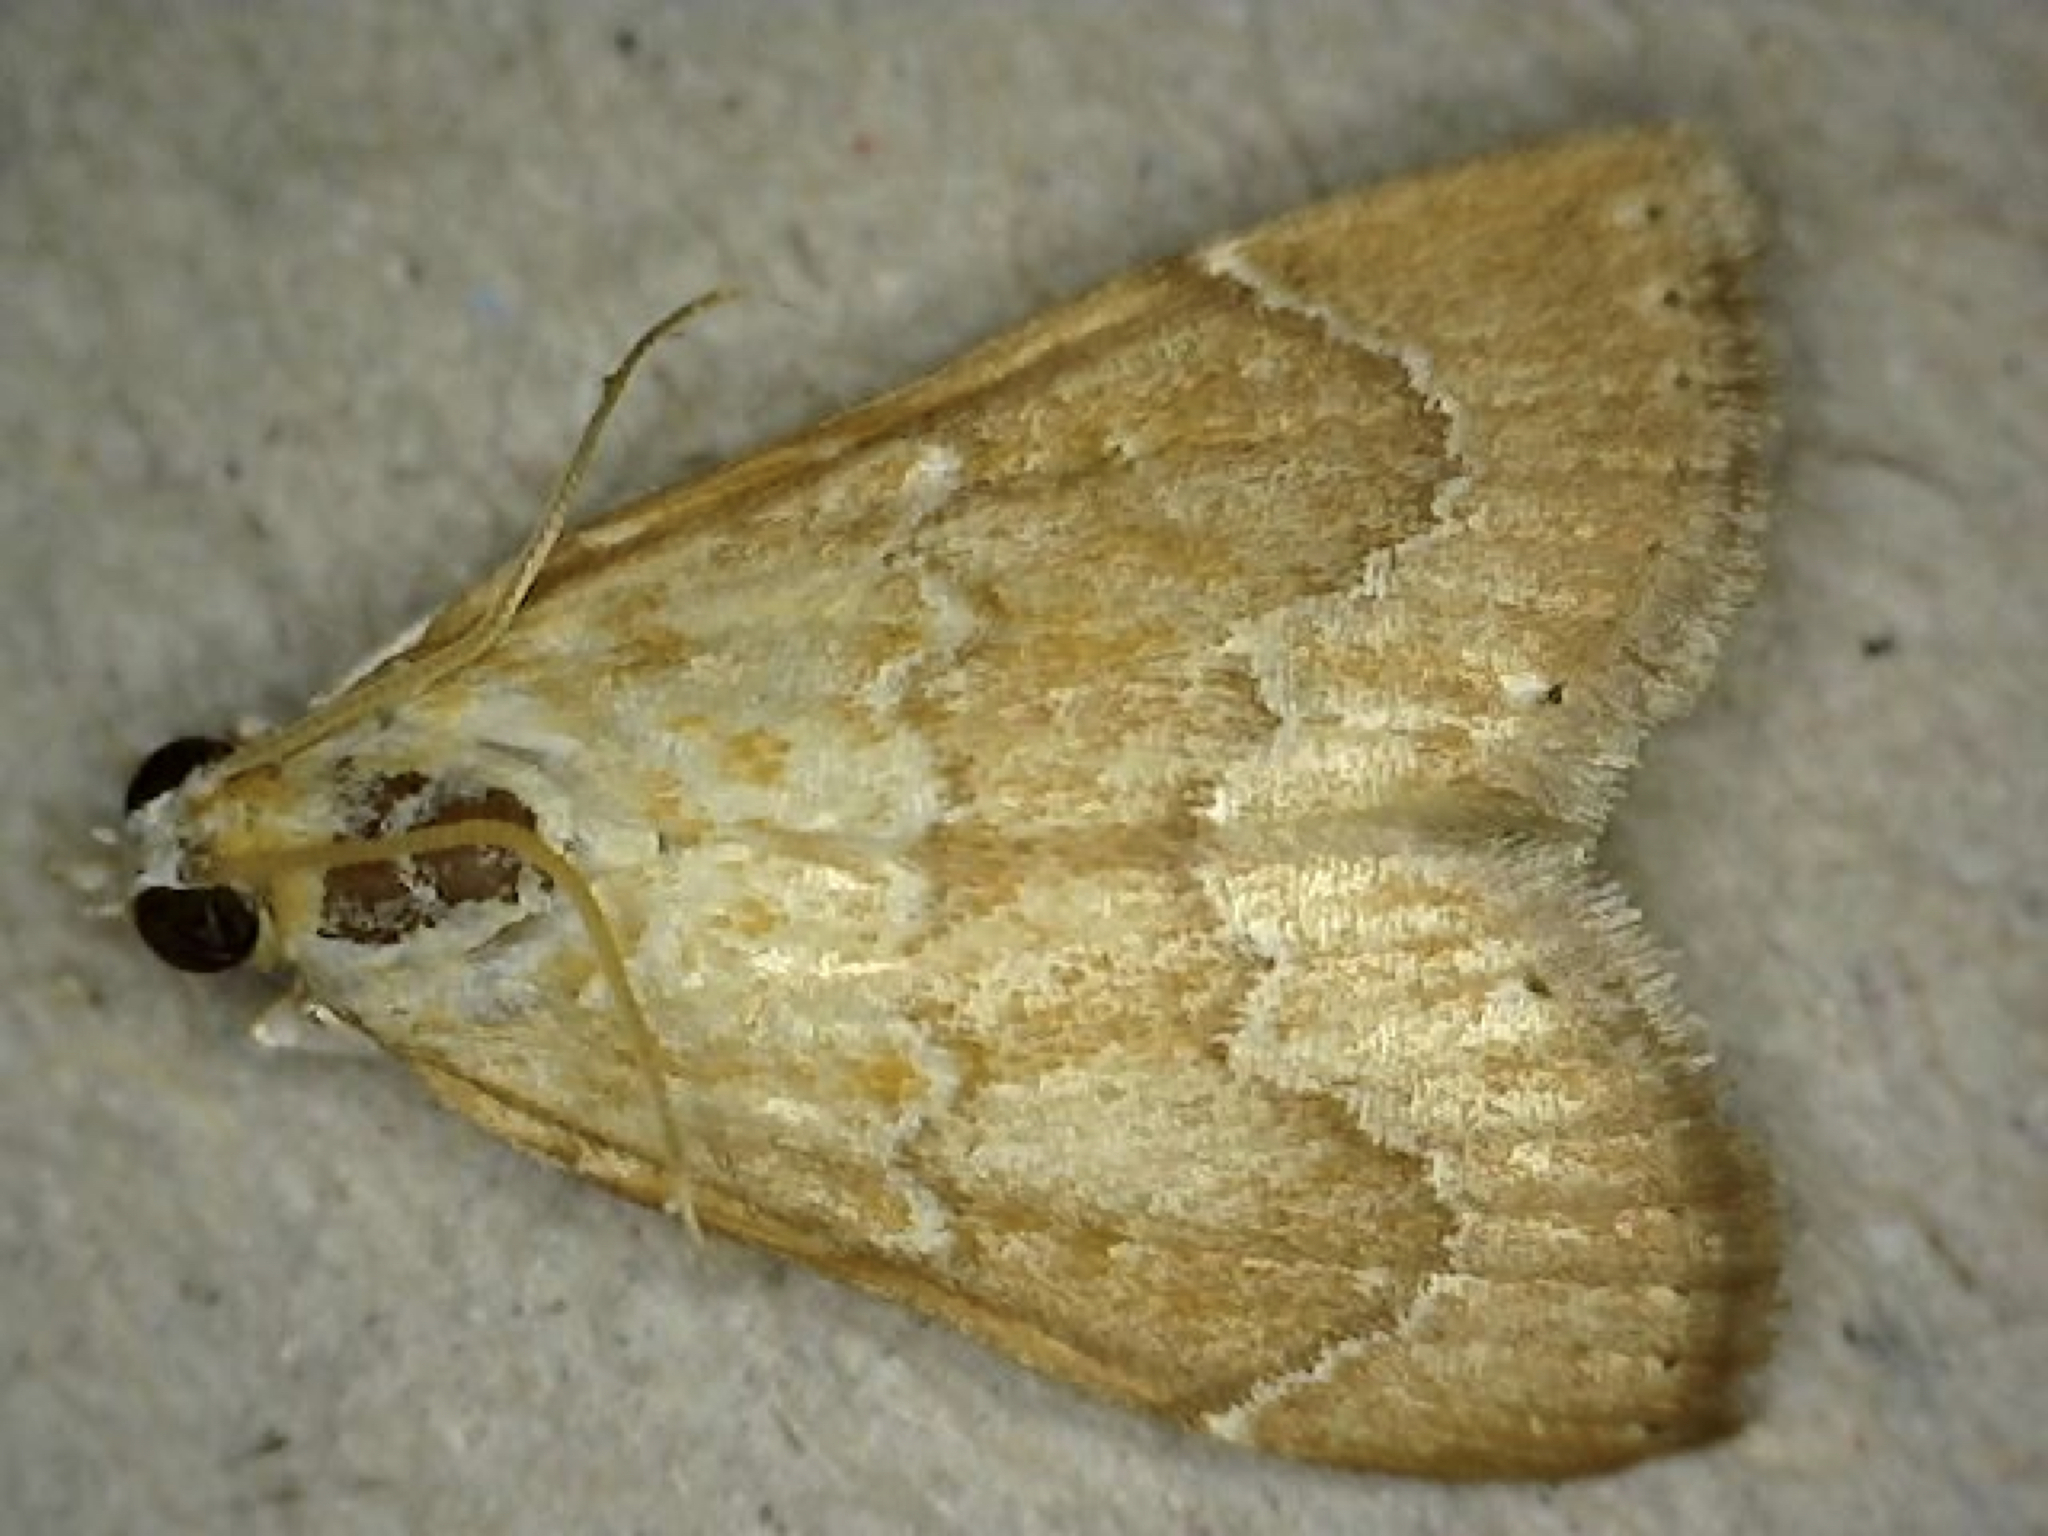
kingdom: Animalia
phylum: Arthropoda
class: Insecta
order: Lepidoptera
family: Crambidae
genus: Glaphyria
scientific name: Glaphyria sesquistrialis
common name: White-roped glaphyria
